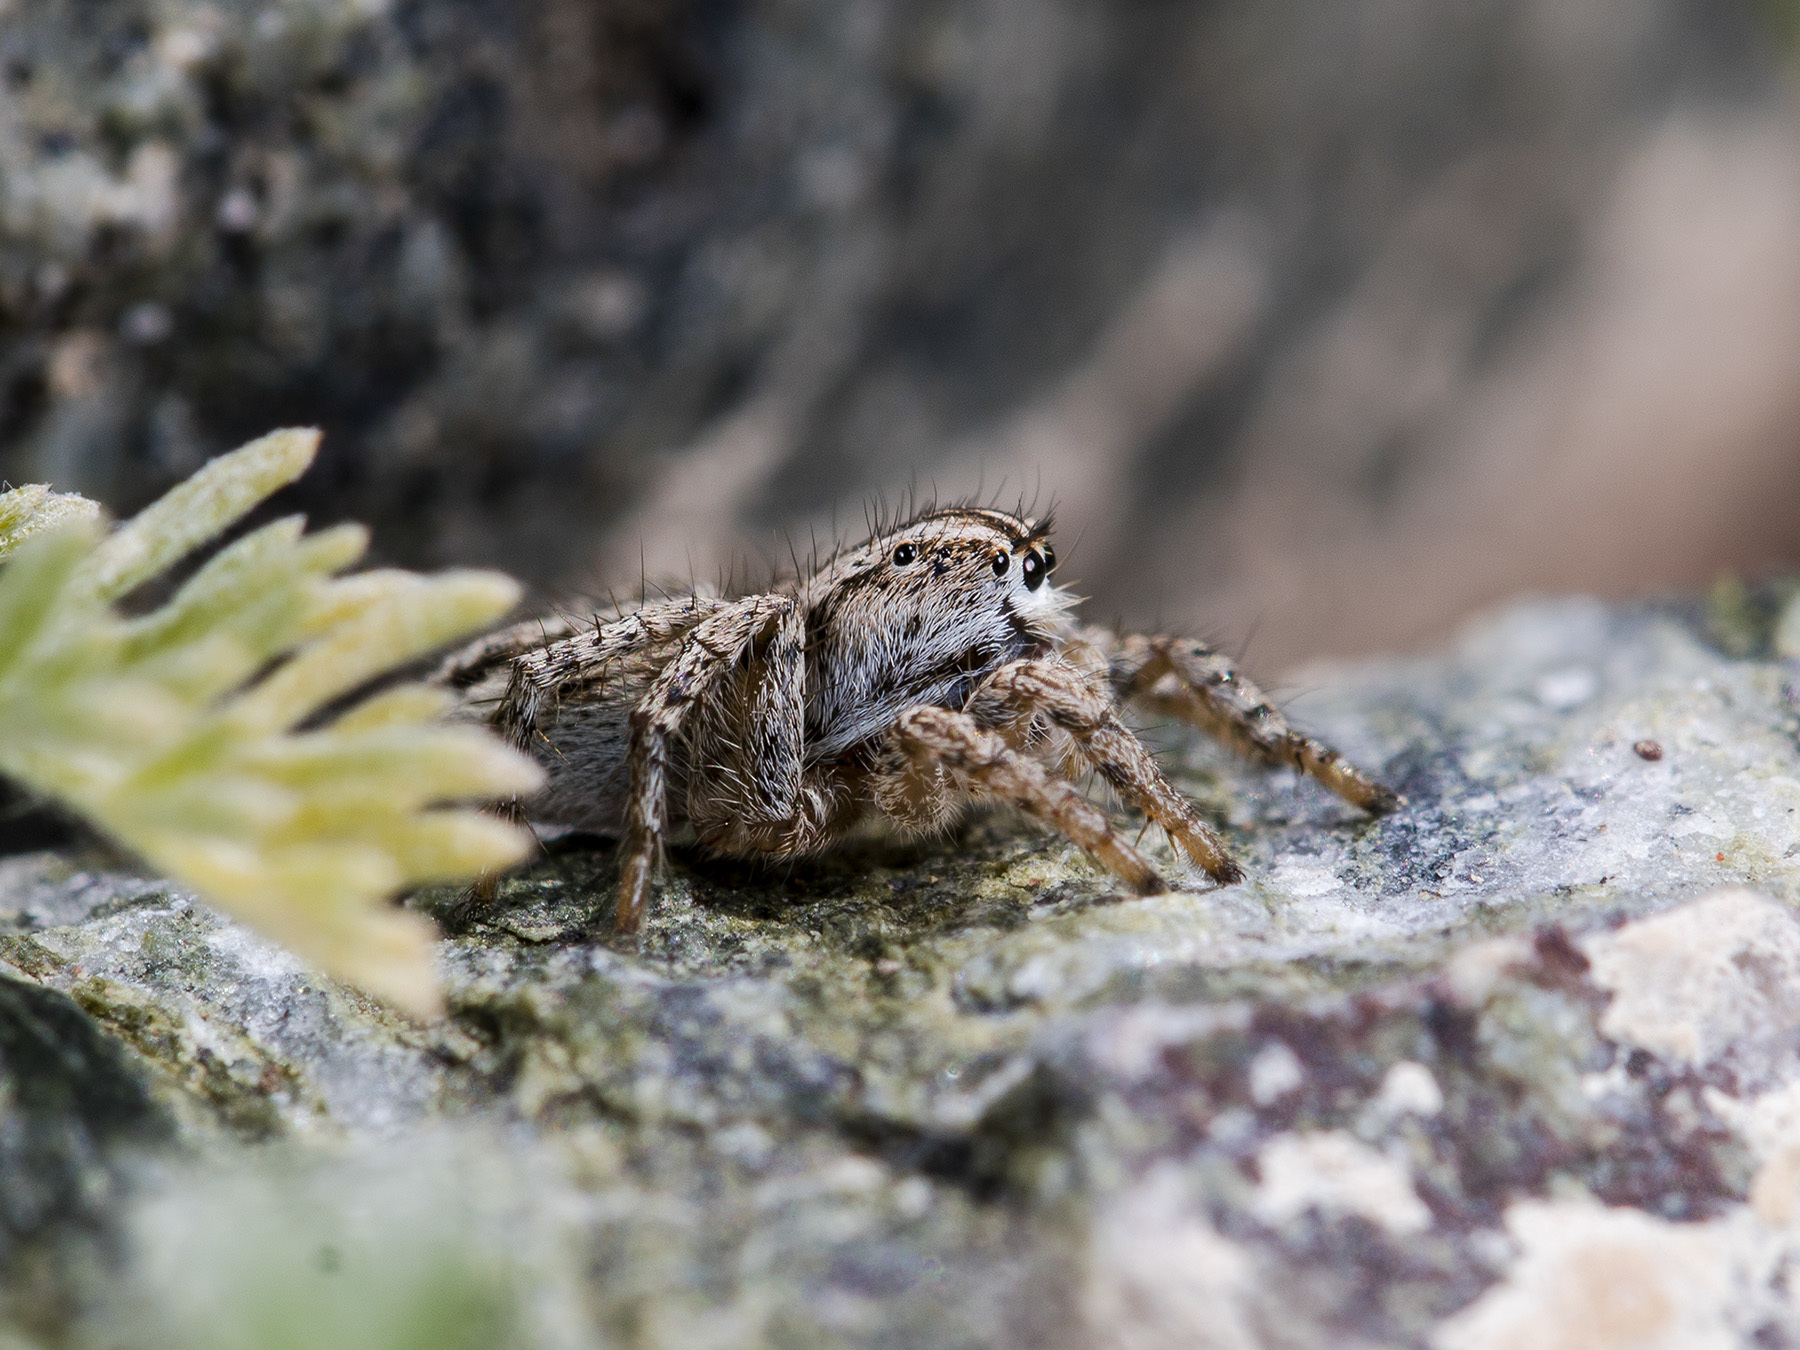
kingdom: Animalia
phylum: Arthropoda
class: Arachnida
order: Araneae
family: Salticidae
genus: Aelurillus
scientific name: Aelurillus m-nigrum
